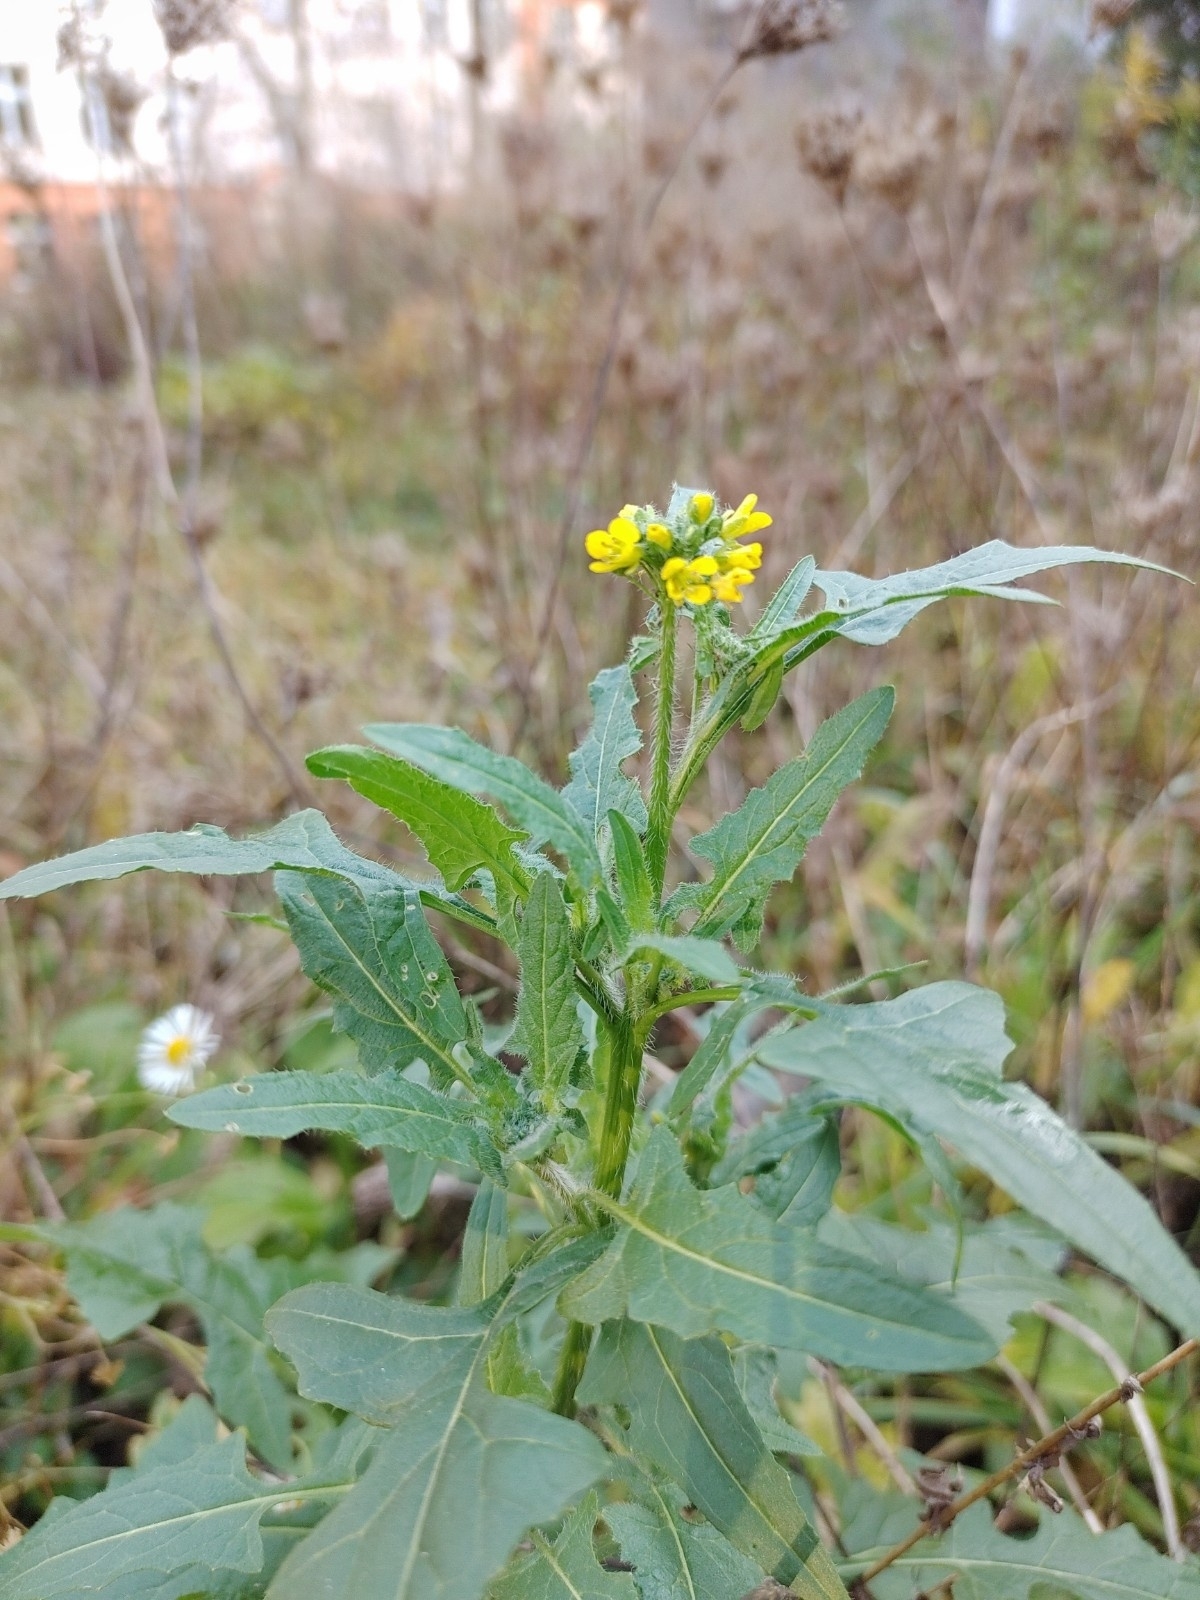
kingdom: Plantae
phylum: Tracheophyta
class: Magnoliopsida
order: Brassicales
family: Brassicaceae
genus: Sisymbrium
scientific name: Sisymbrium loeselii
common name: False london-rocket
